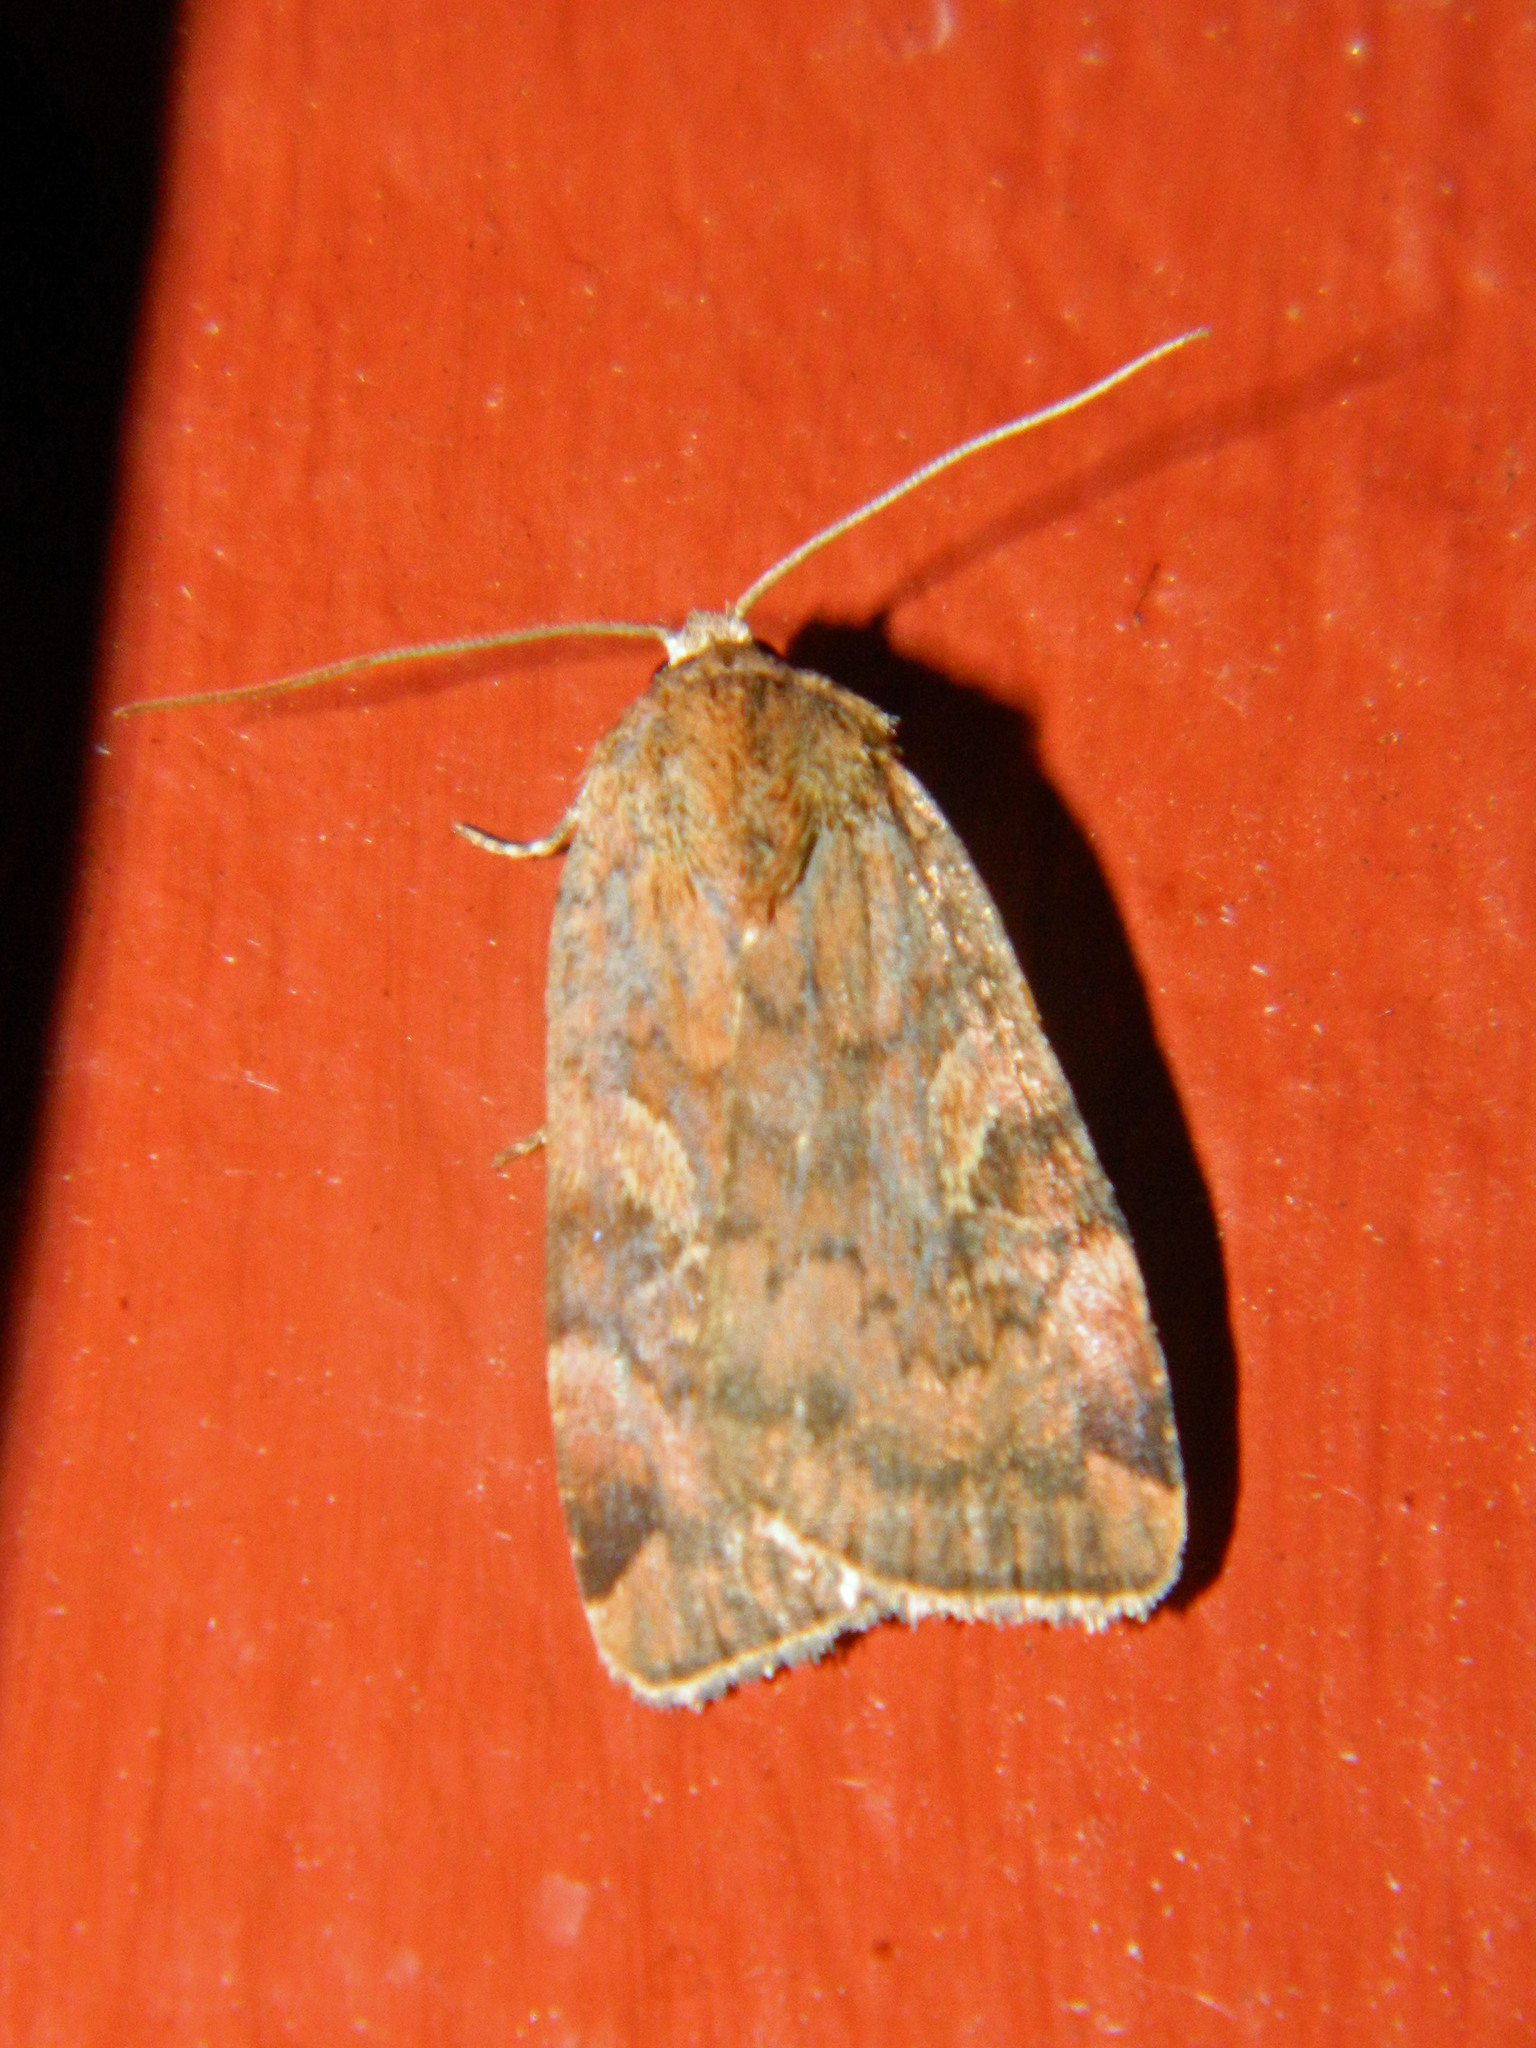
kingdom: Animalia
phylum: Arthropoda
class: Insecta
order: Lepidoptera
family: Noctuidae
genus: Cryptocala
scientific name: Cryptocala acadiensis
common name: Catocaline dart
